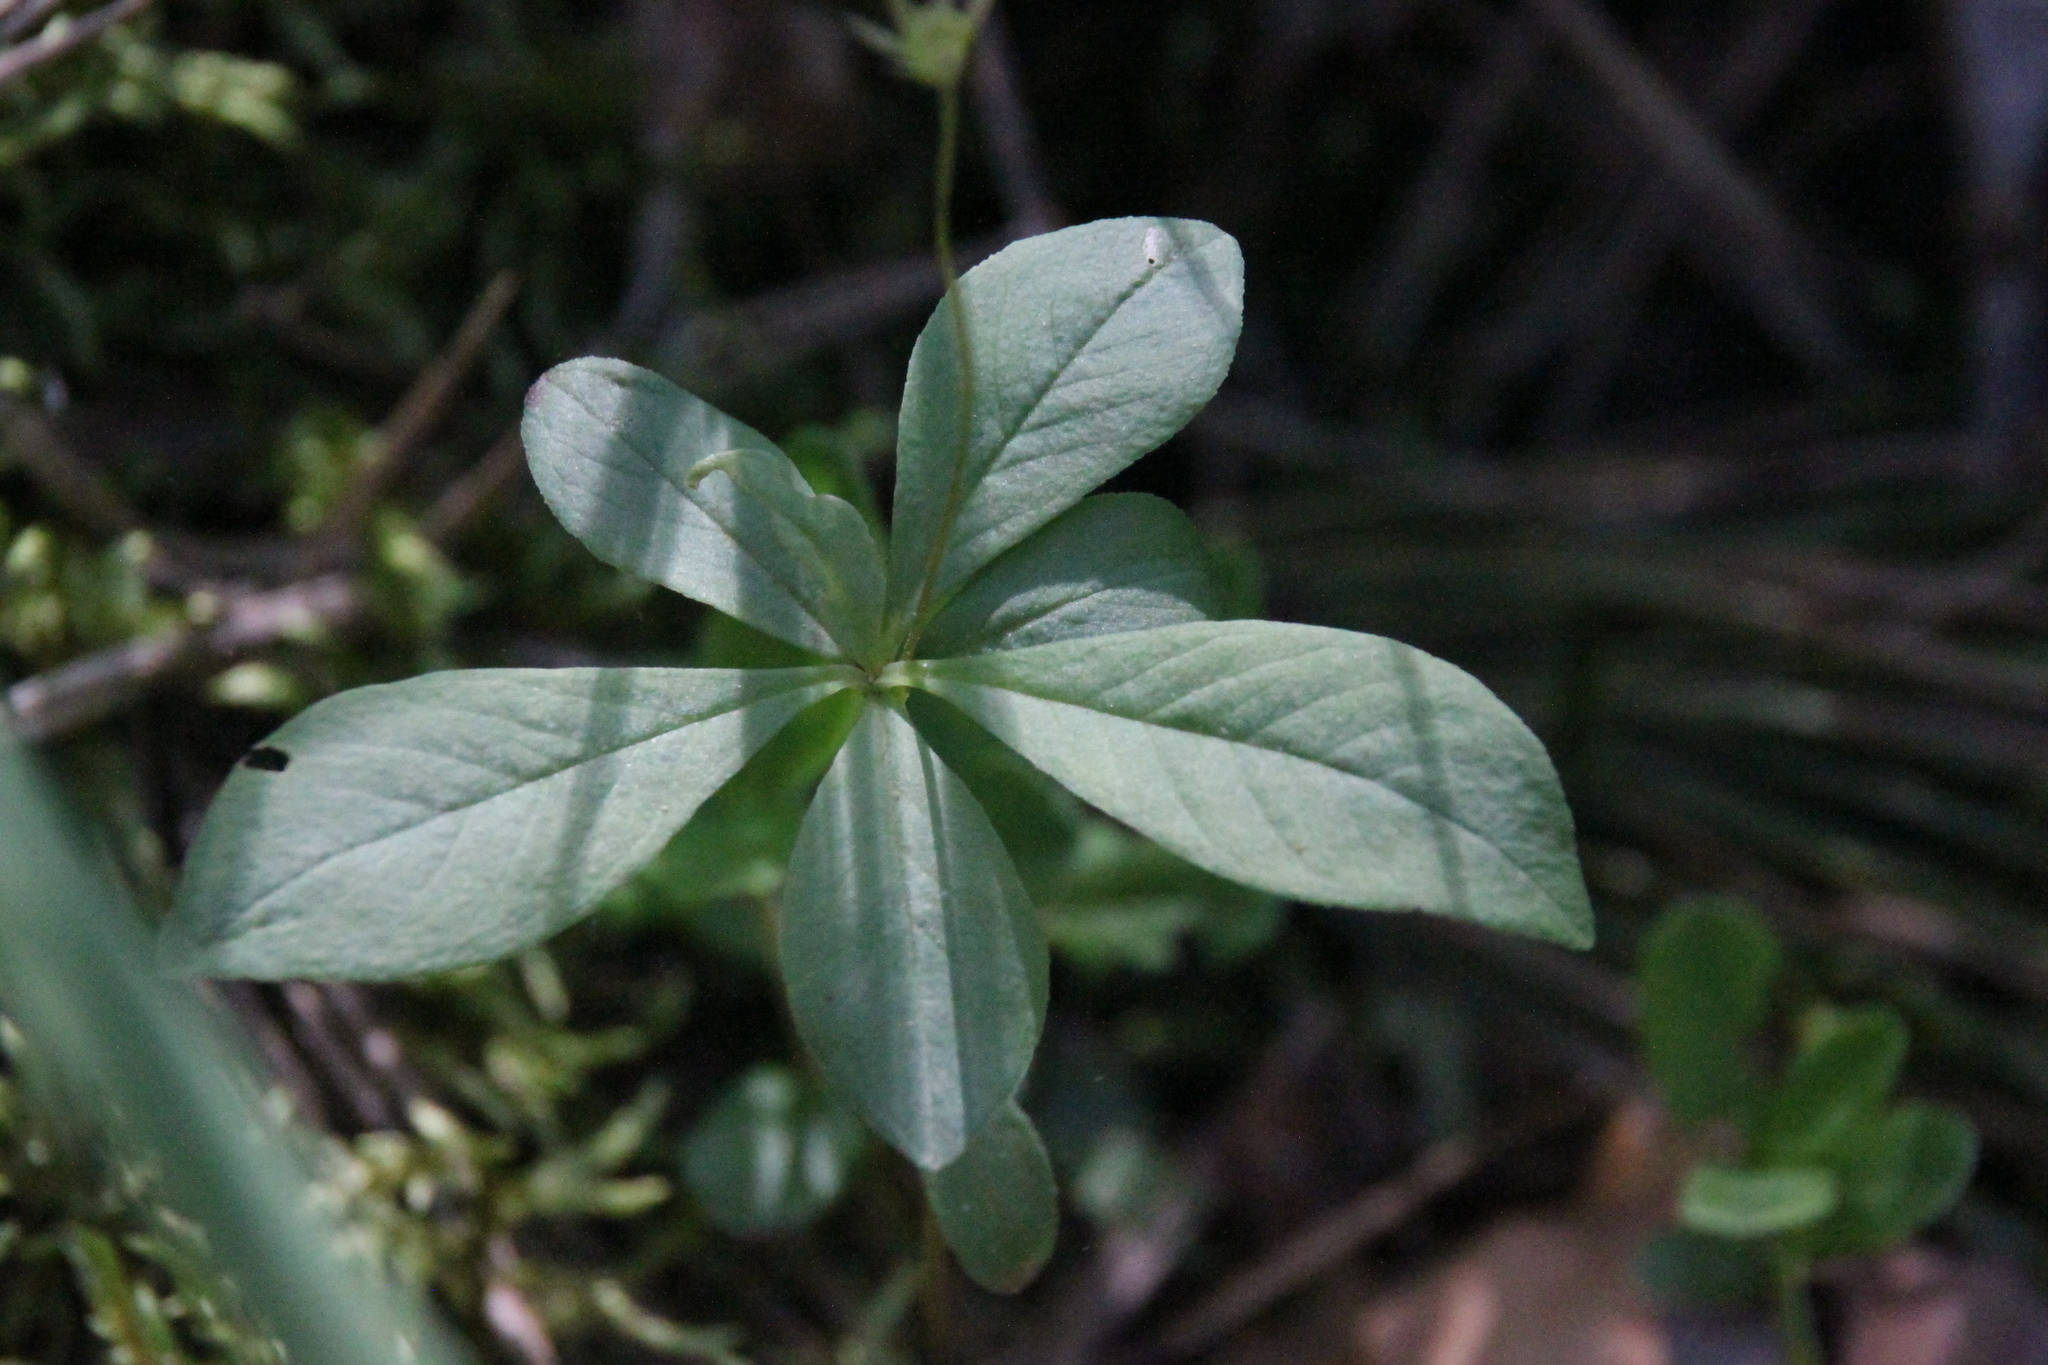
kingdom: Plantae
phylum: Tracheophyta
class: Magnoliopsida
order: Ericales
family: Primulaceae
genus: Lysimachia
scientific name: Lysimachia europaea
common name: Arctic starflower
